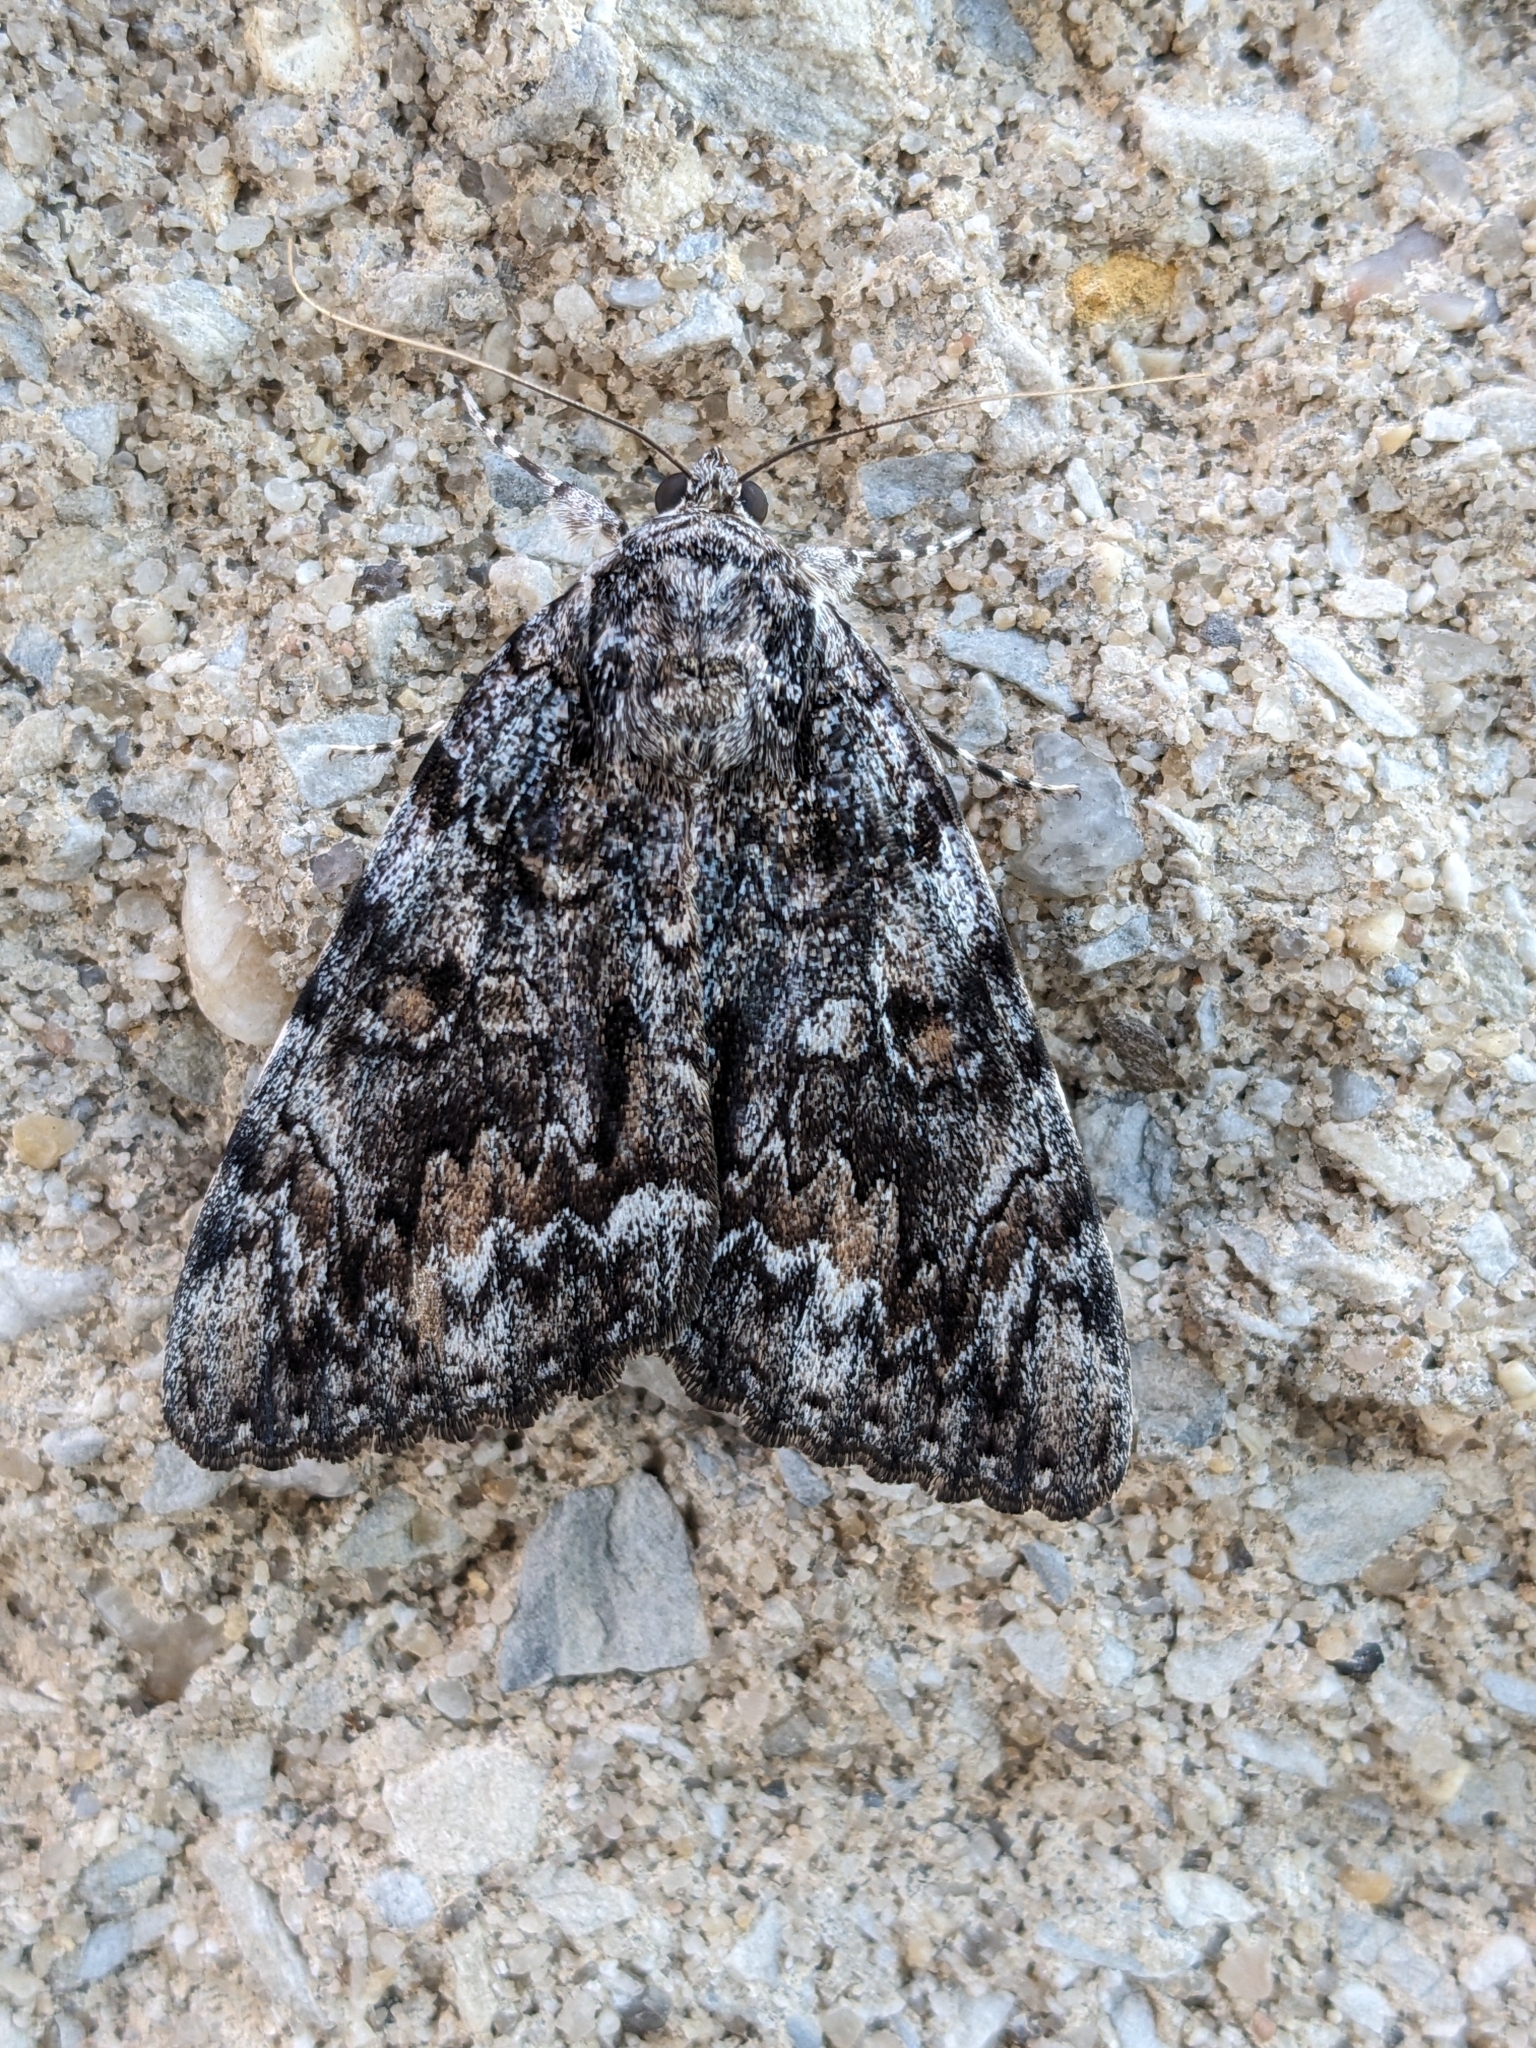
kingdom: Animalia
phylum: Arthropoda
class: Insecta
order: Lepidoptera
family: Erebidae
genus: Catocala
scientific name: Catocala palaeogama
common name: Oldwife underwing
